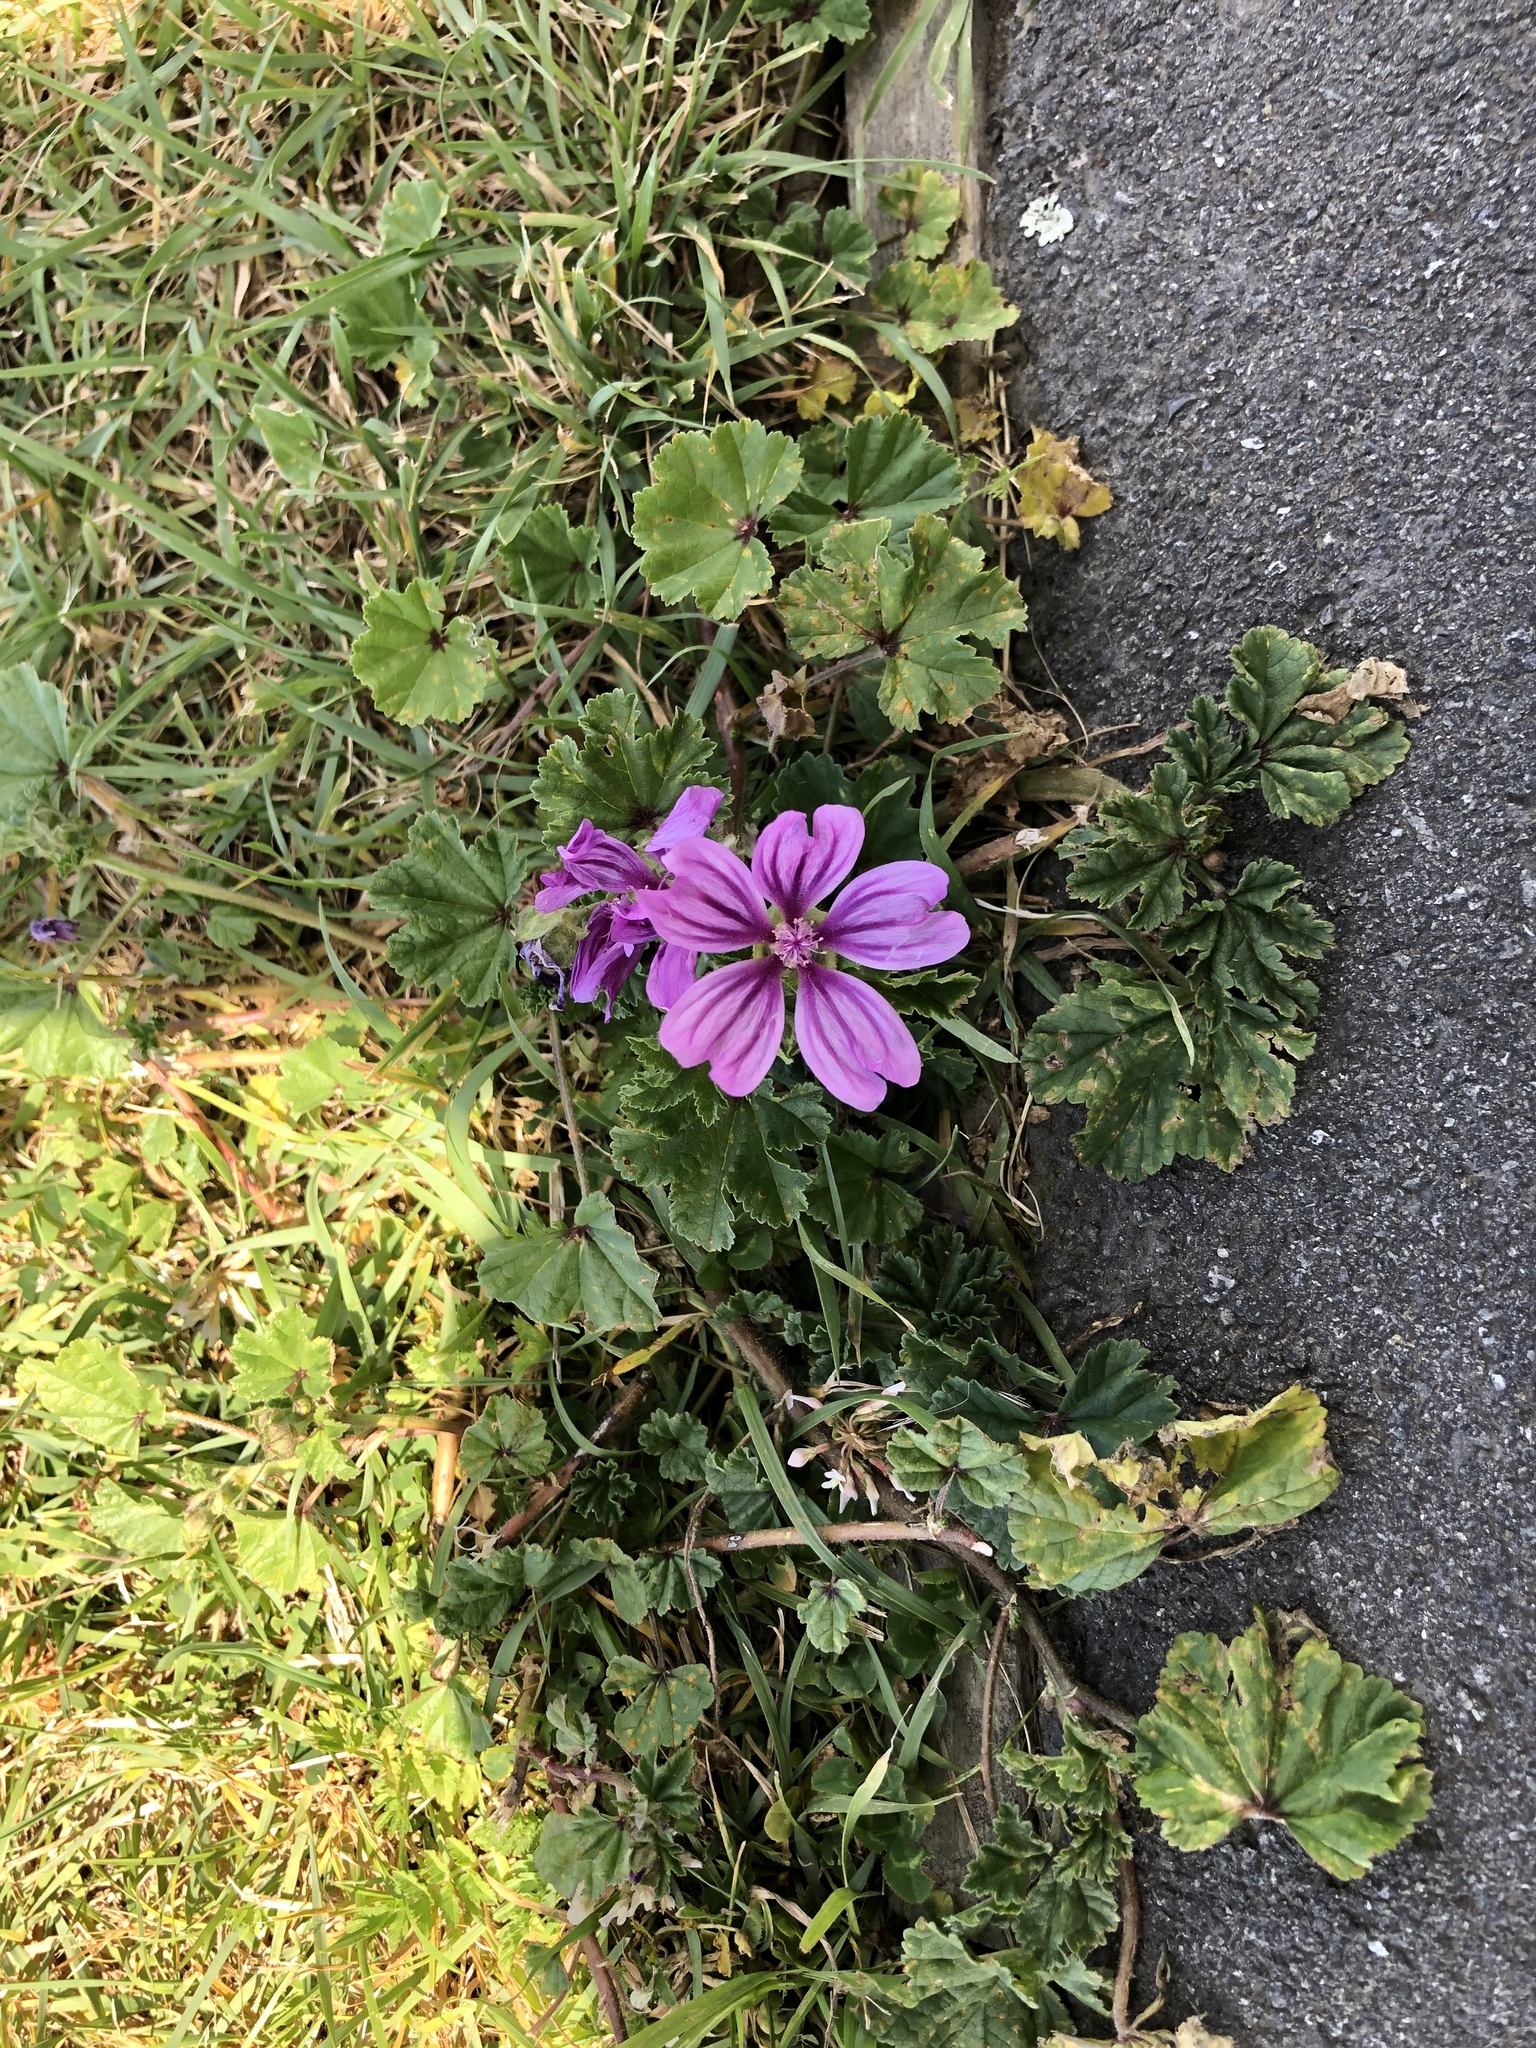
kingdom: Plantae
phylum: Tracheophyta
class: Magnoliopsida
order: Malvales
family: Malvaceae
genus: Malva
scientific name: Malva sylvestris
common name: Common mallow
